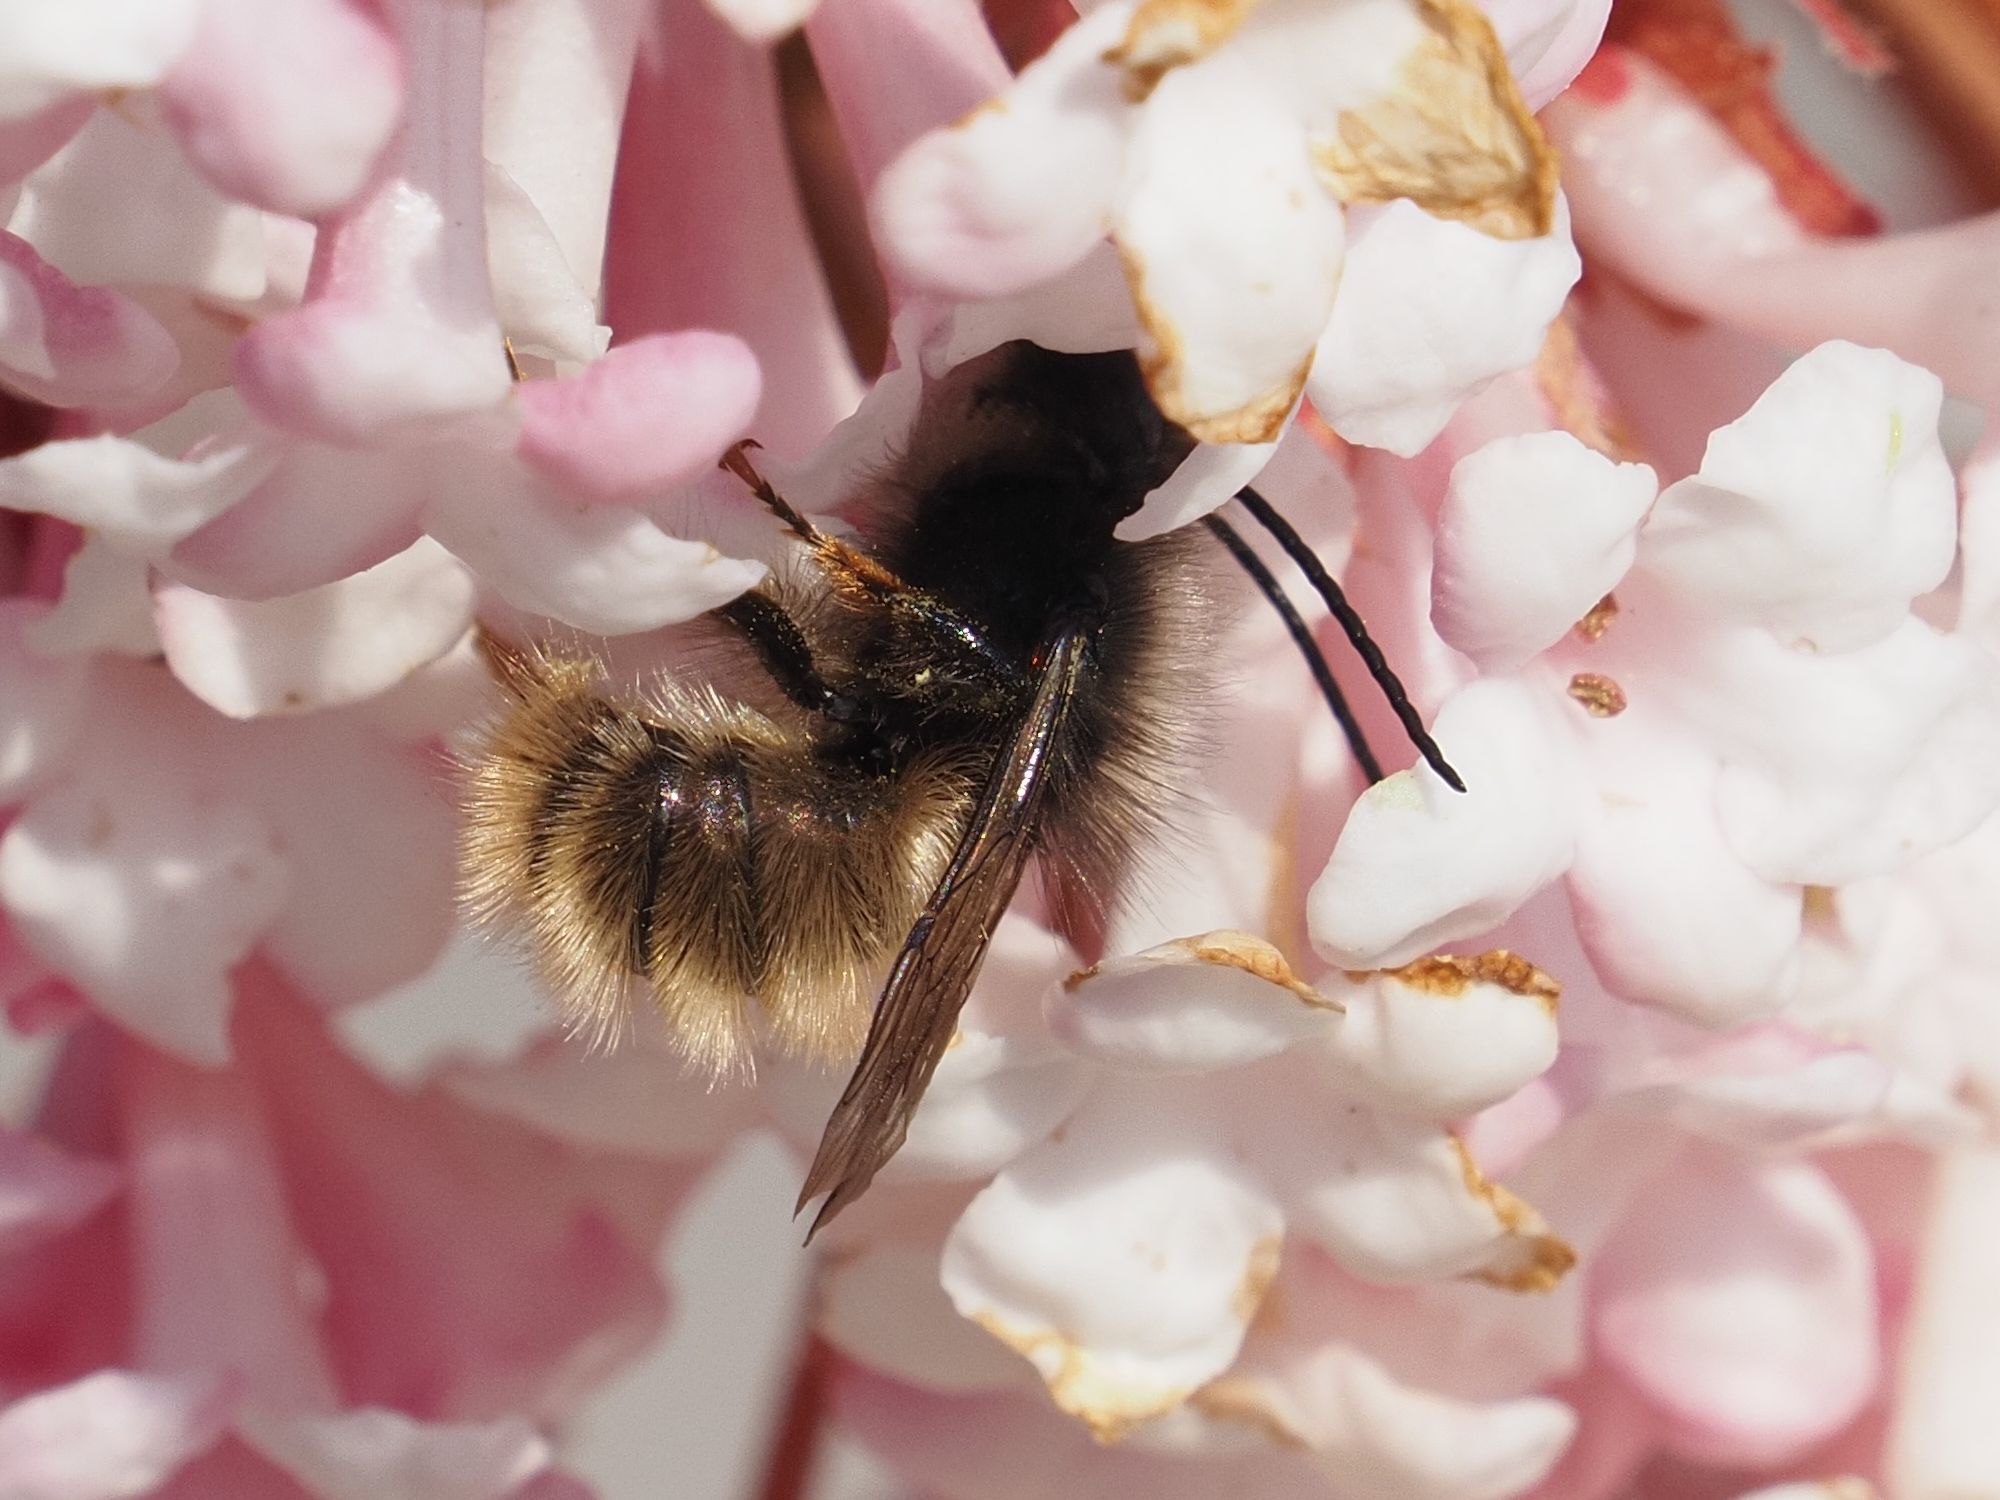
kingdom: Animalia
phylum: Arthropoda
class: Insecta
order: Hymenoptera
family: Megachilidae
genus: Osmia
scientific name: Osmia cornuta
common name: Mason bee
